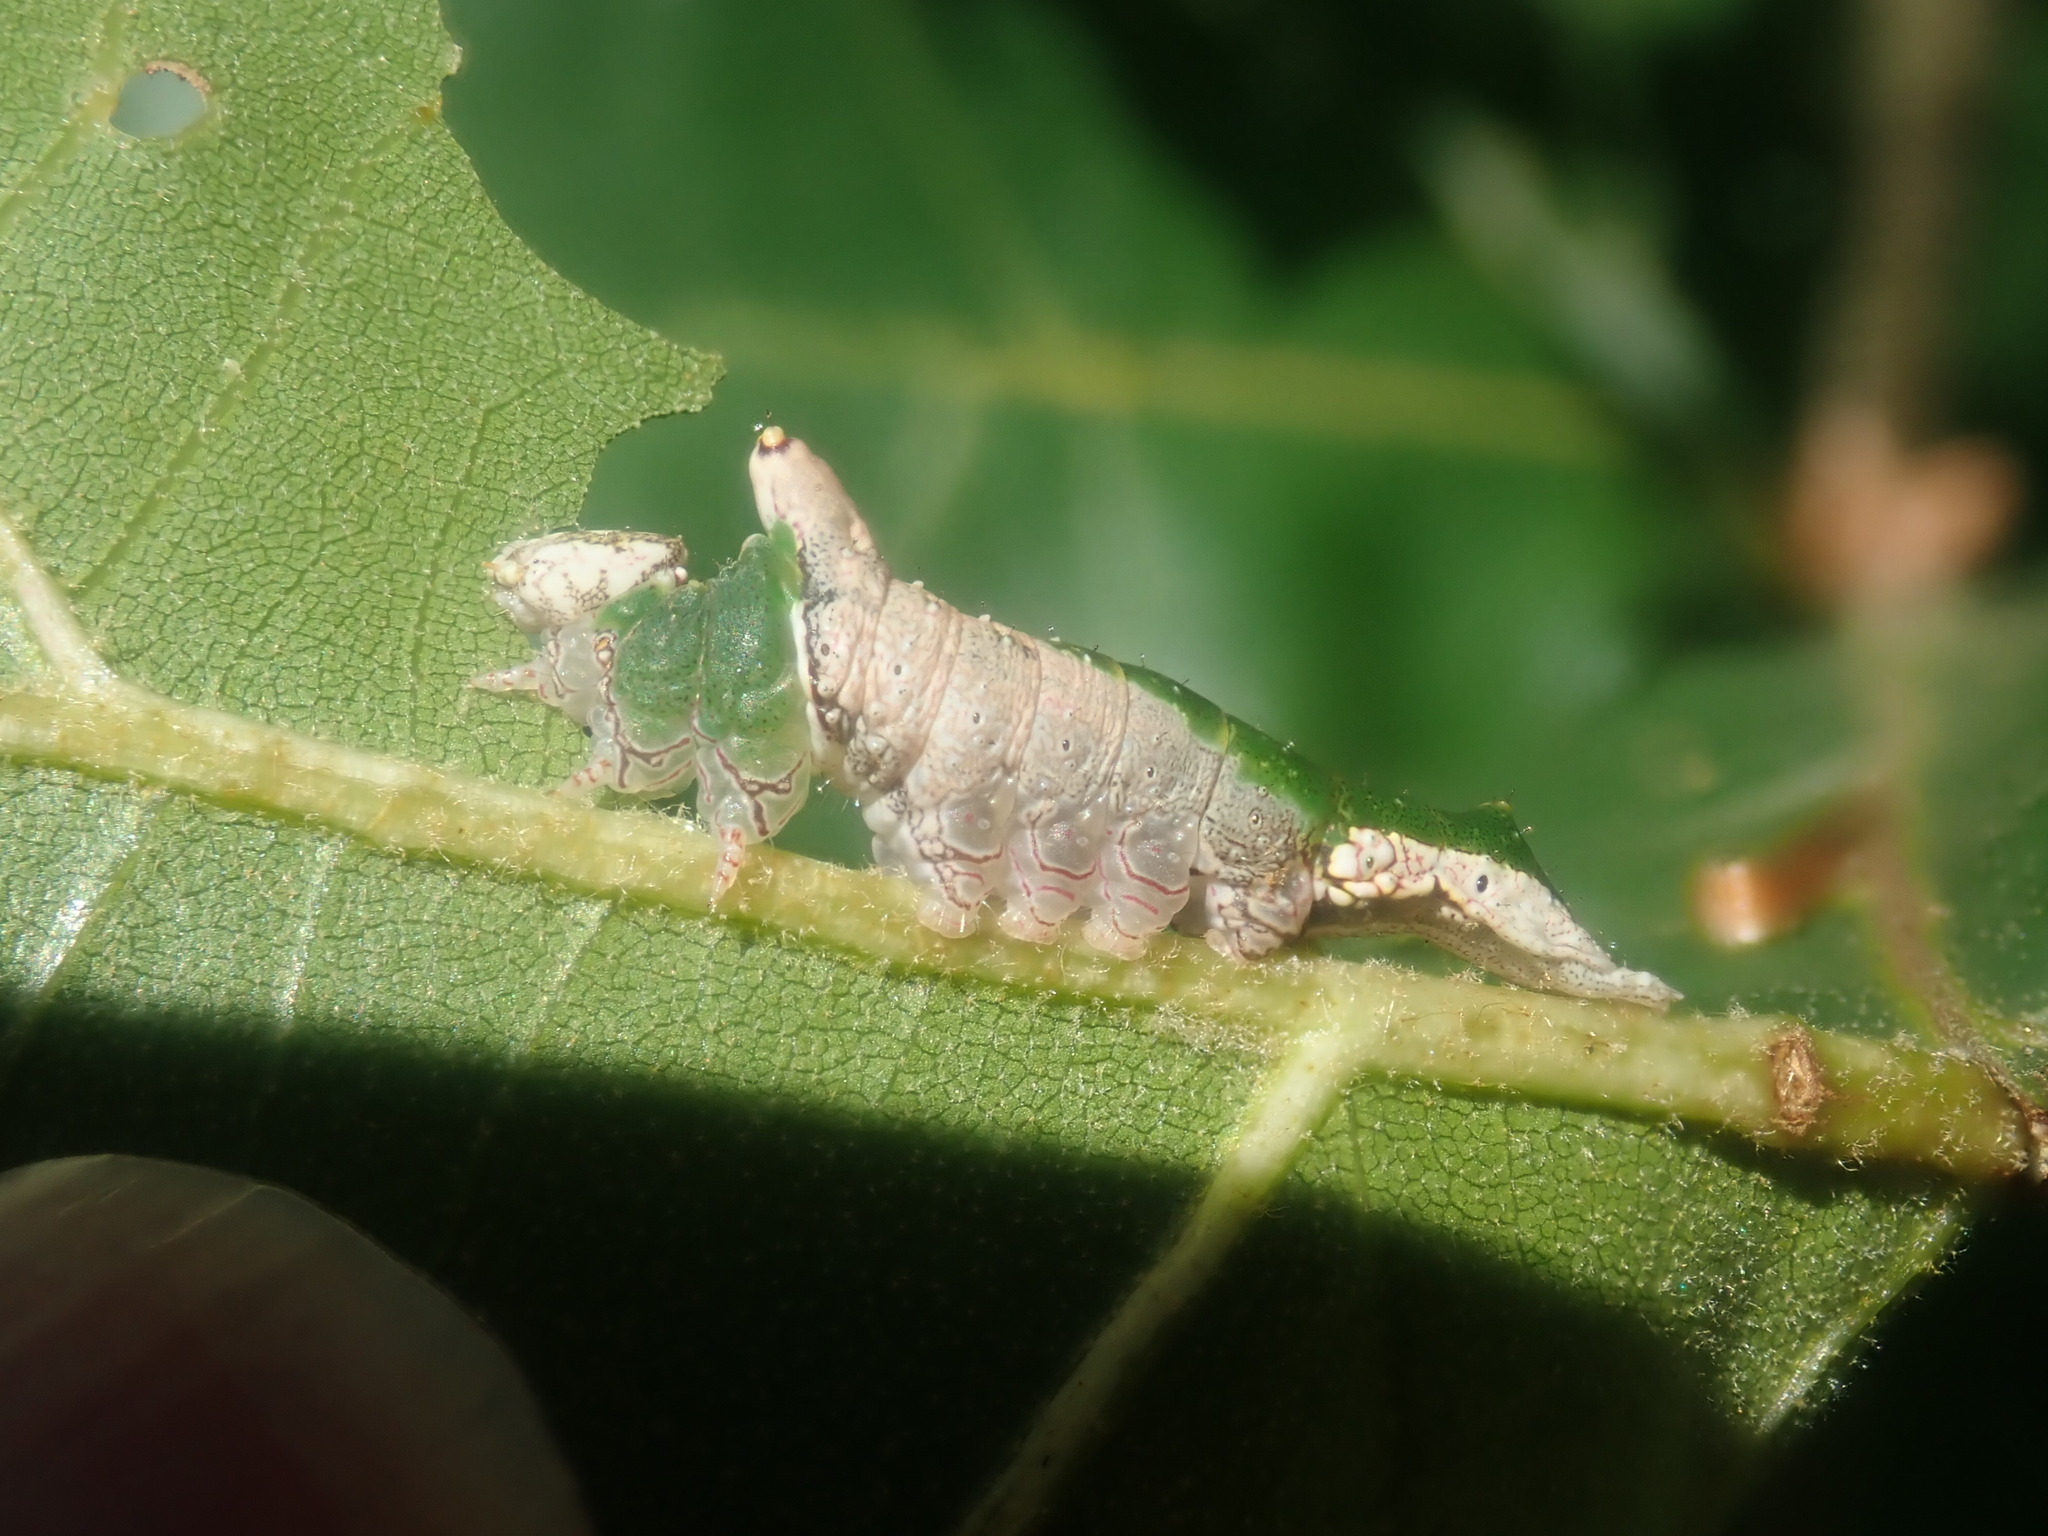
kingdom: Animalia
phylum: Arthropoda
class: Insecta
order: Lepidoptera
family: Notodontidae
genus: Oligocentria
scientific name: Oligocentria Ianassa lignicolor
